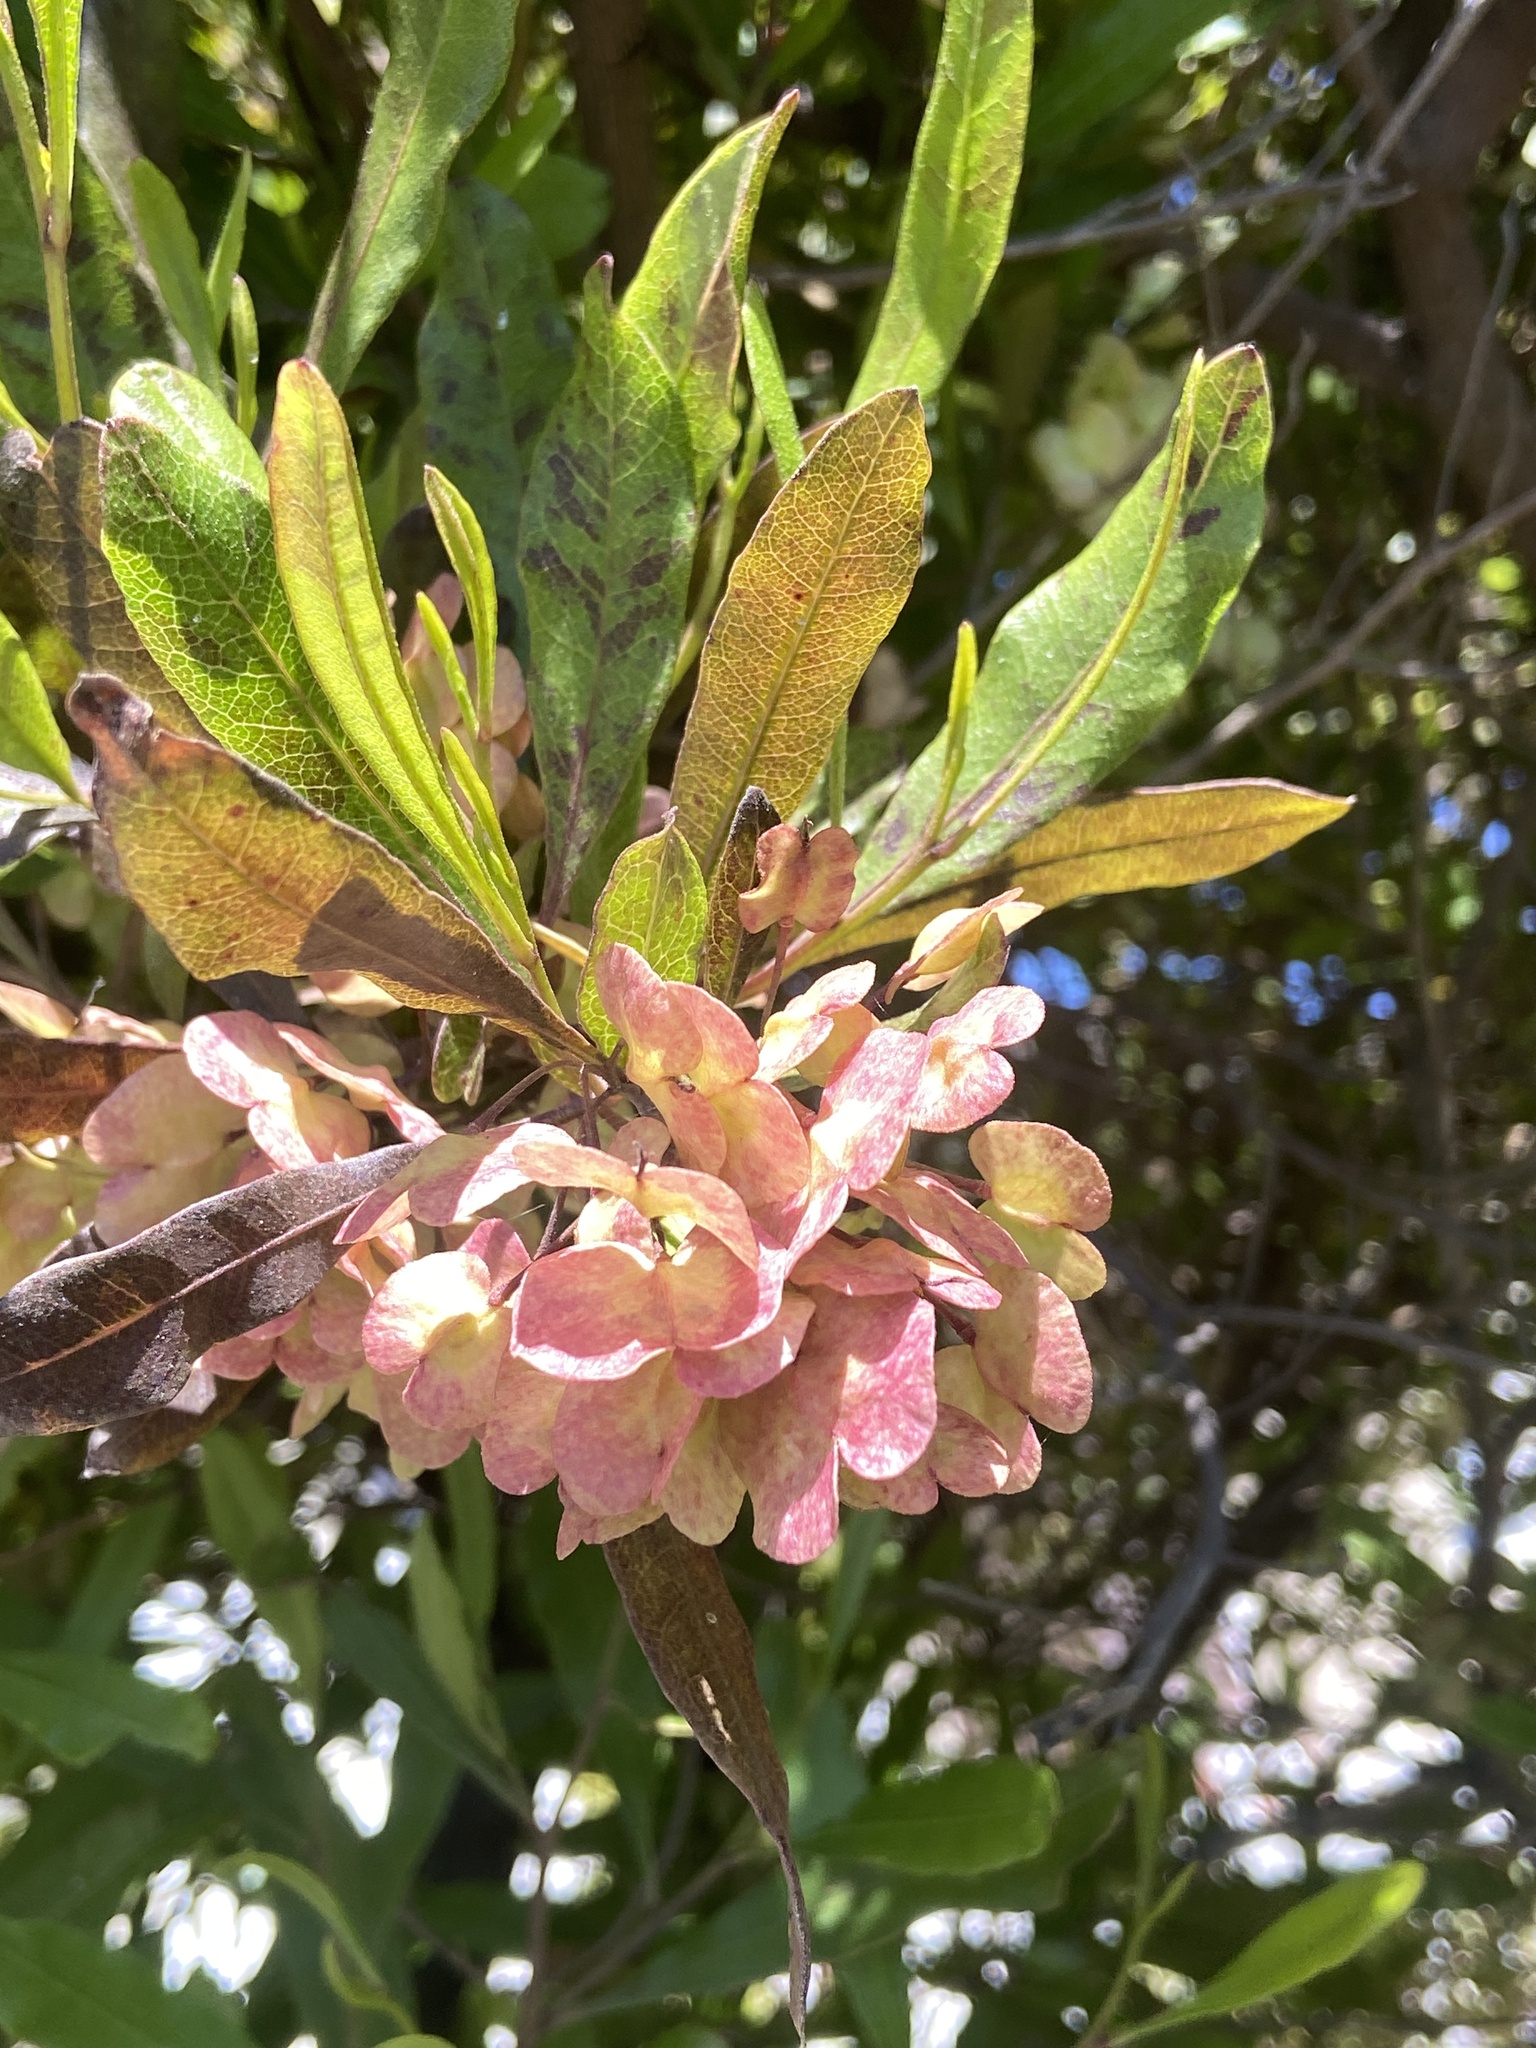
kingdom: Plantae
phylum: Tracheophyta
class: Magnoliopsida
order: Sapindales
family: Sapindaceae
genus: Dodonaea
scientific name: Dodonaea viscosa
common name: Hopbush
